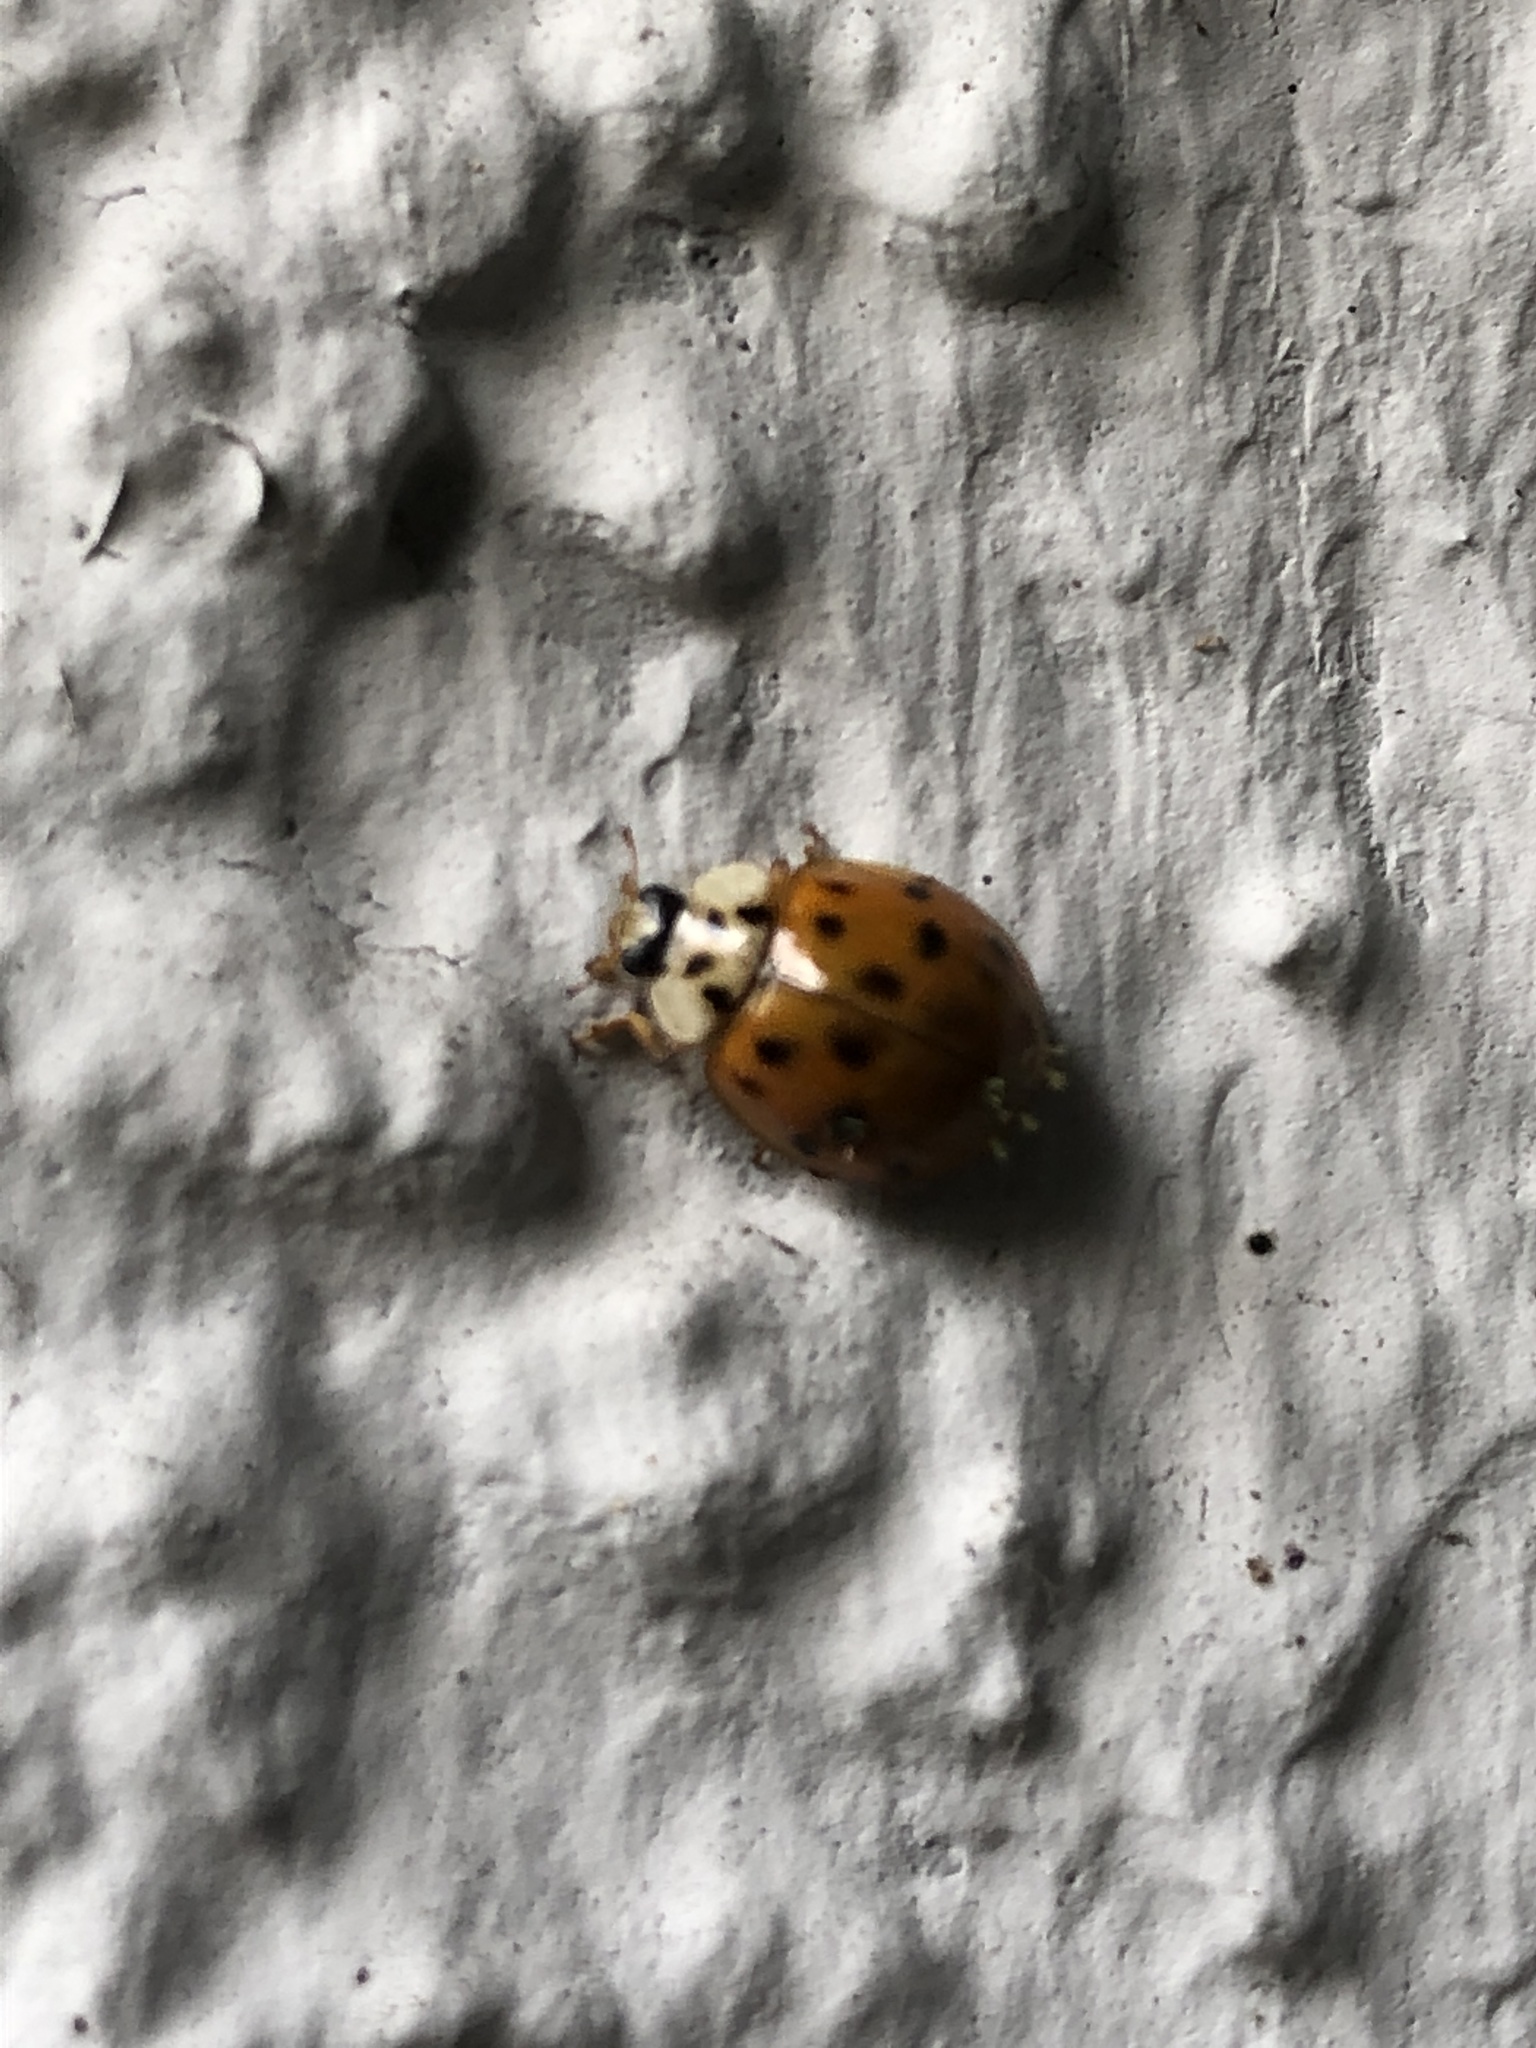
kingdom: Animalia
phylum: Arthropoda
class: Insecta
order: Coleoptera
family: Coccinellidae
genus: Harmonia
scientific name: Harmonia axyridis
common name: Harlequin ladybird
